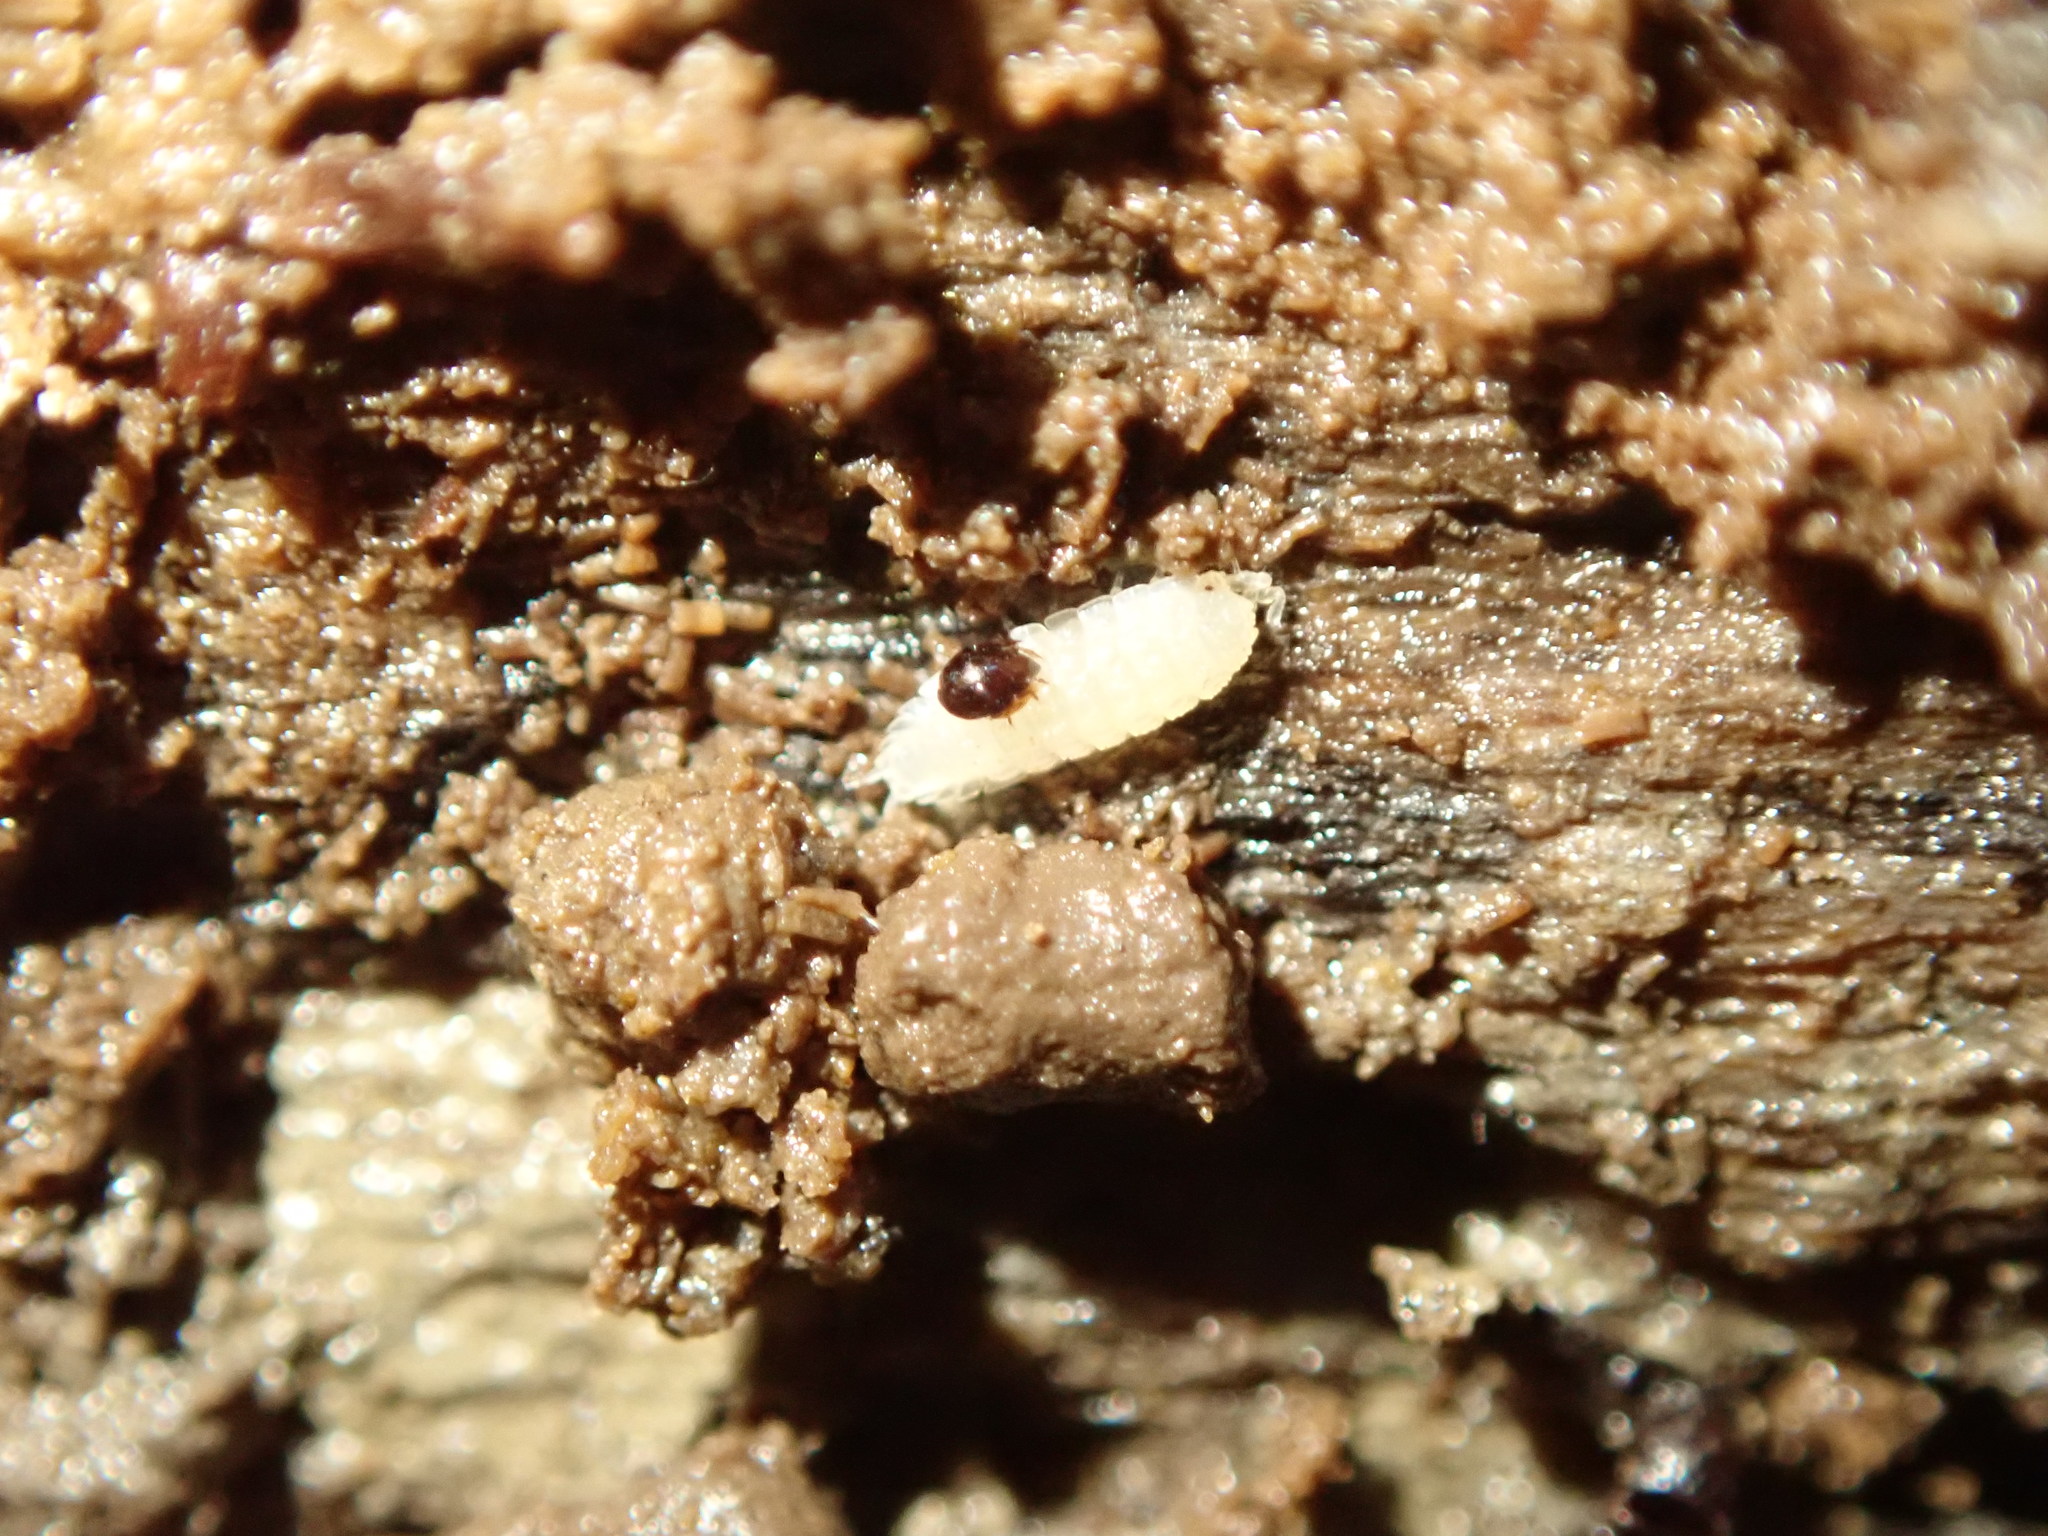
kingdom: Animalia
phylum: Arthropoda
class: Malacostraca
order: Isopoda
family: Trichoniscidae
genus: Haplophthalmus
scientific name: Haplophthalmus danicus
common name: Pillbug
